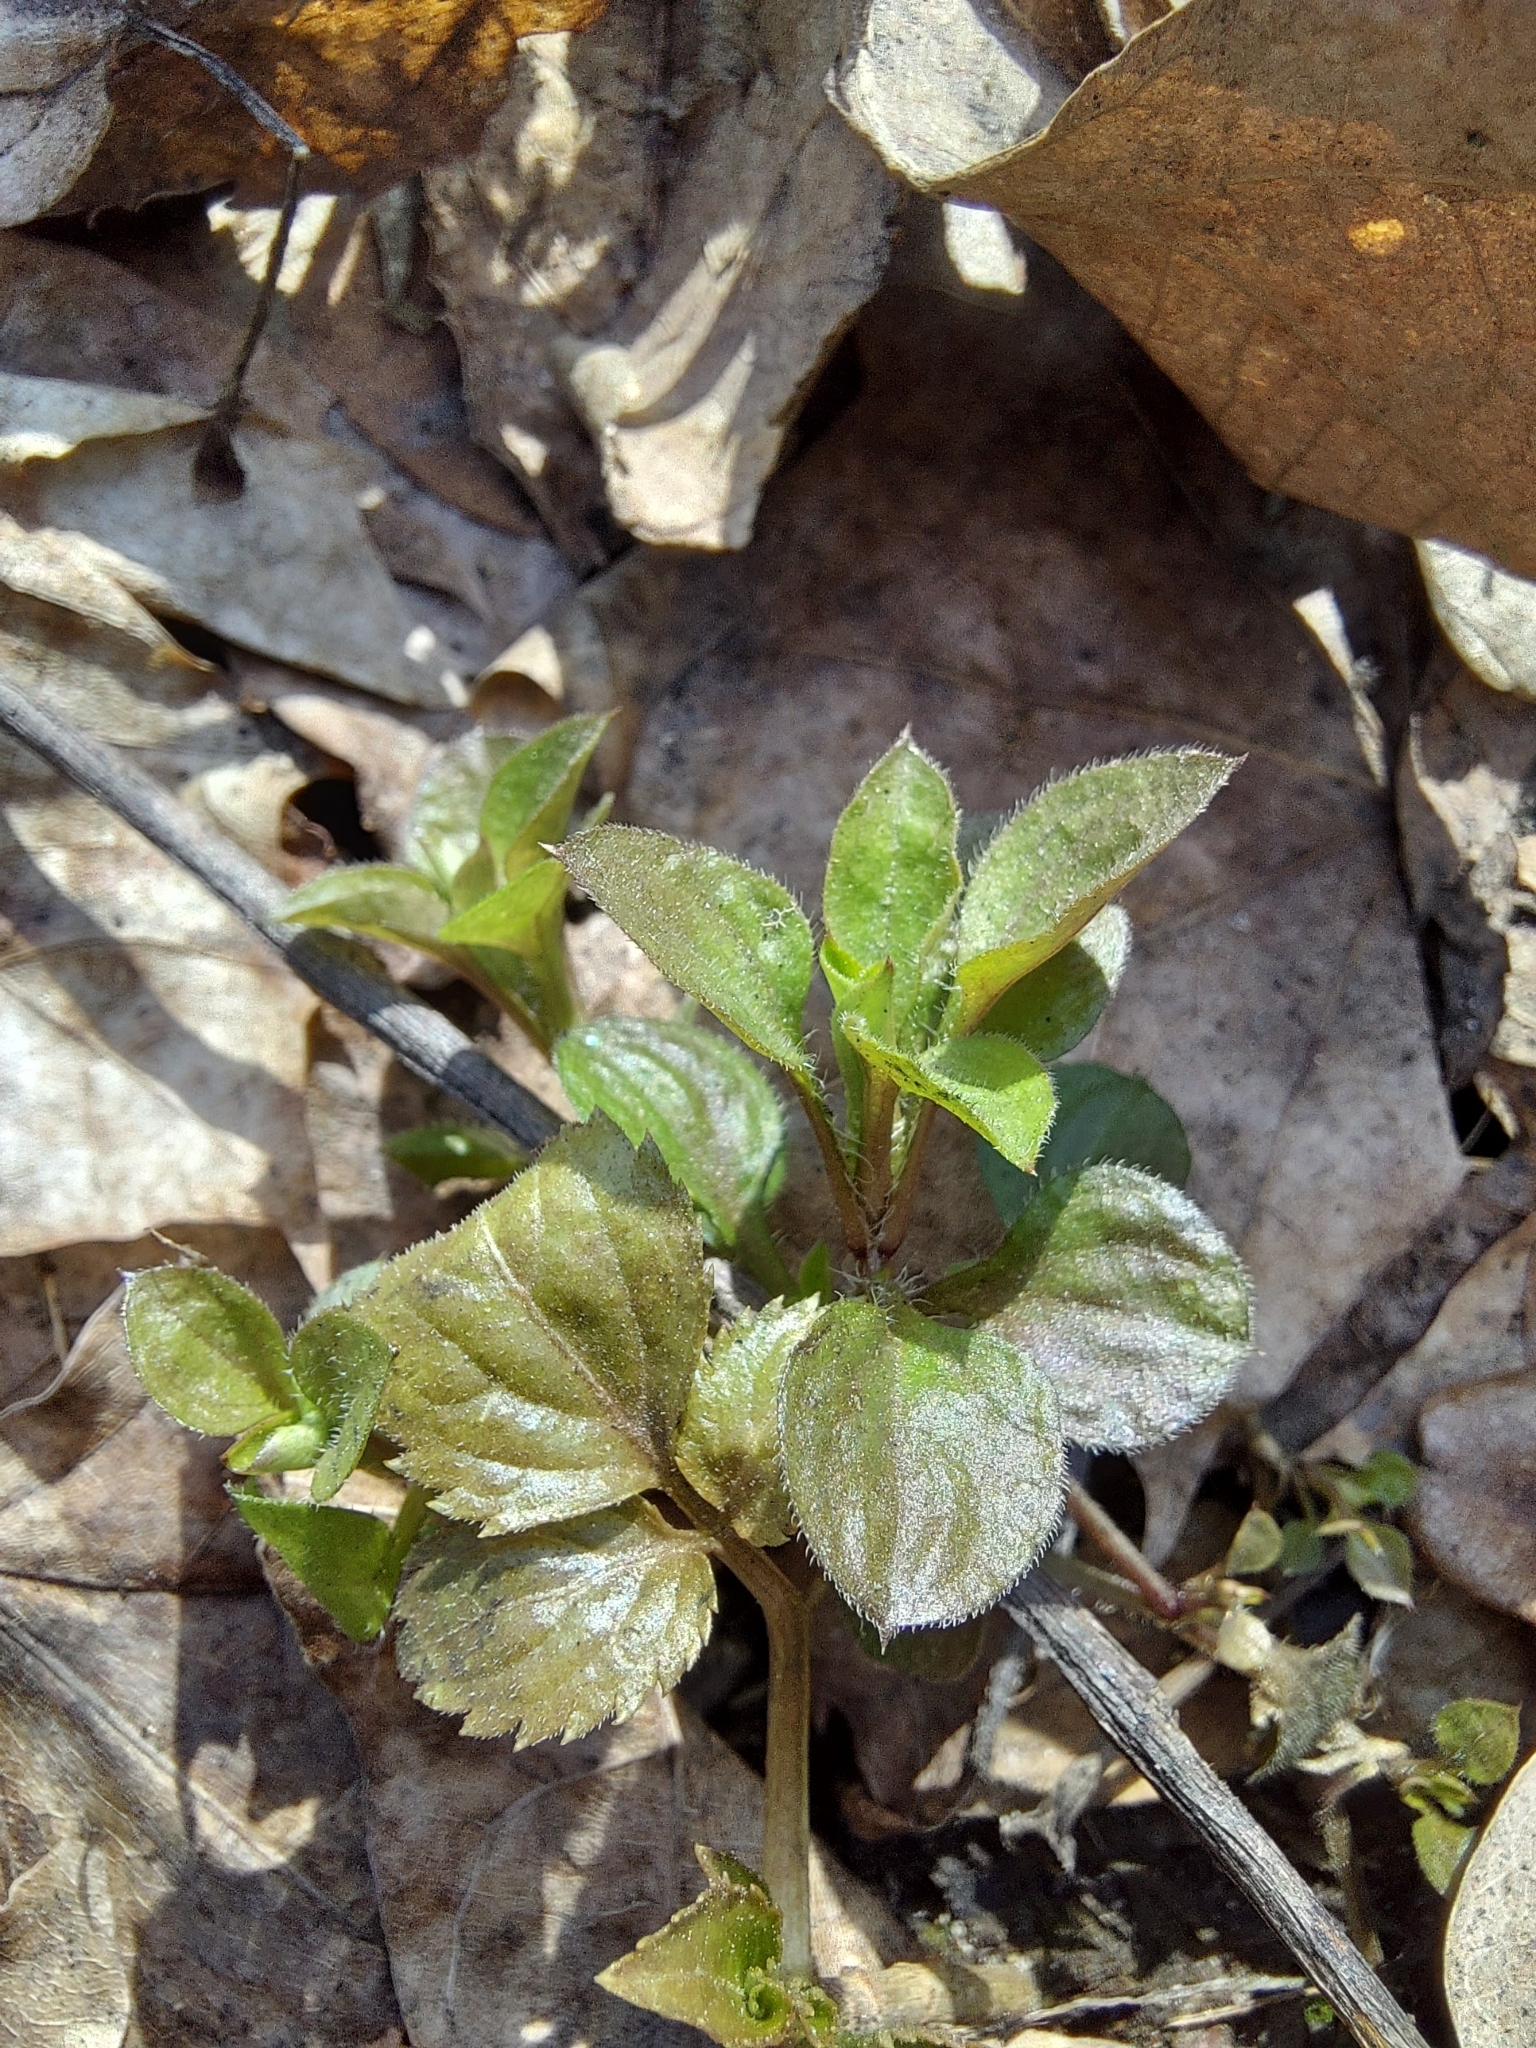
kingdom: Plantae
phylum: Tracheophyta
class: Magnoliopsida
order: Caryophyllales
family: Caryophyllaceae
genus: Moehringia
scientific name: Moehringia trinervia
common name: Three-nerved sandwort
